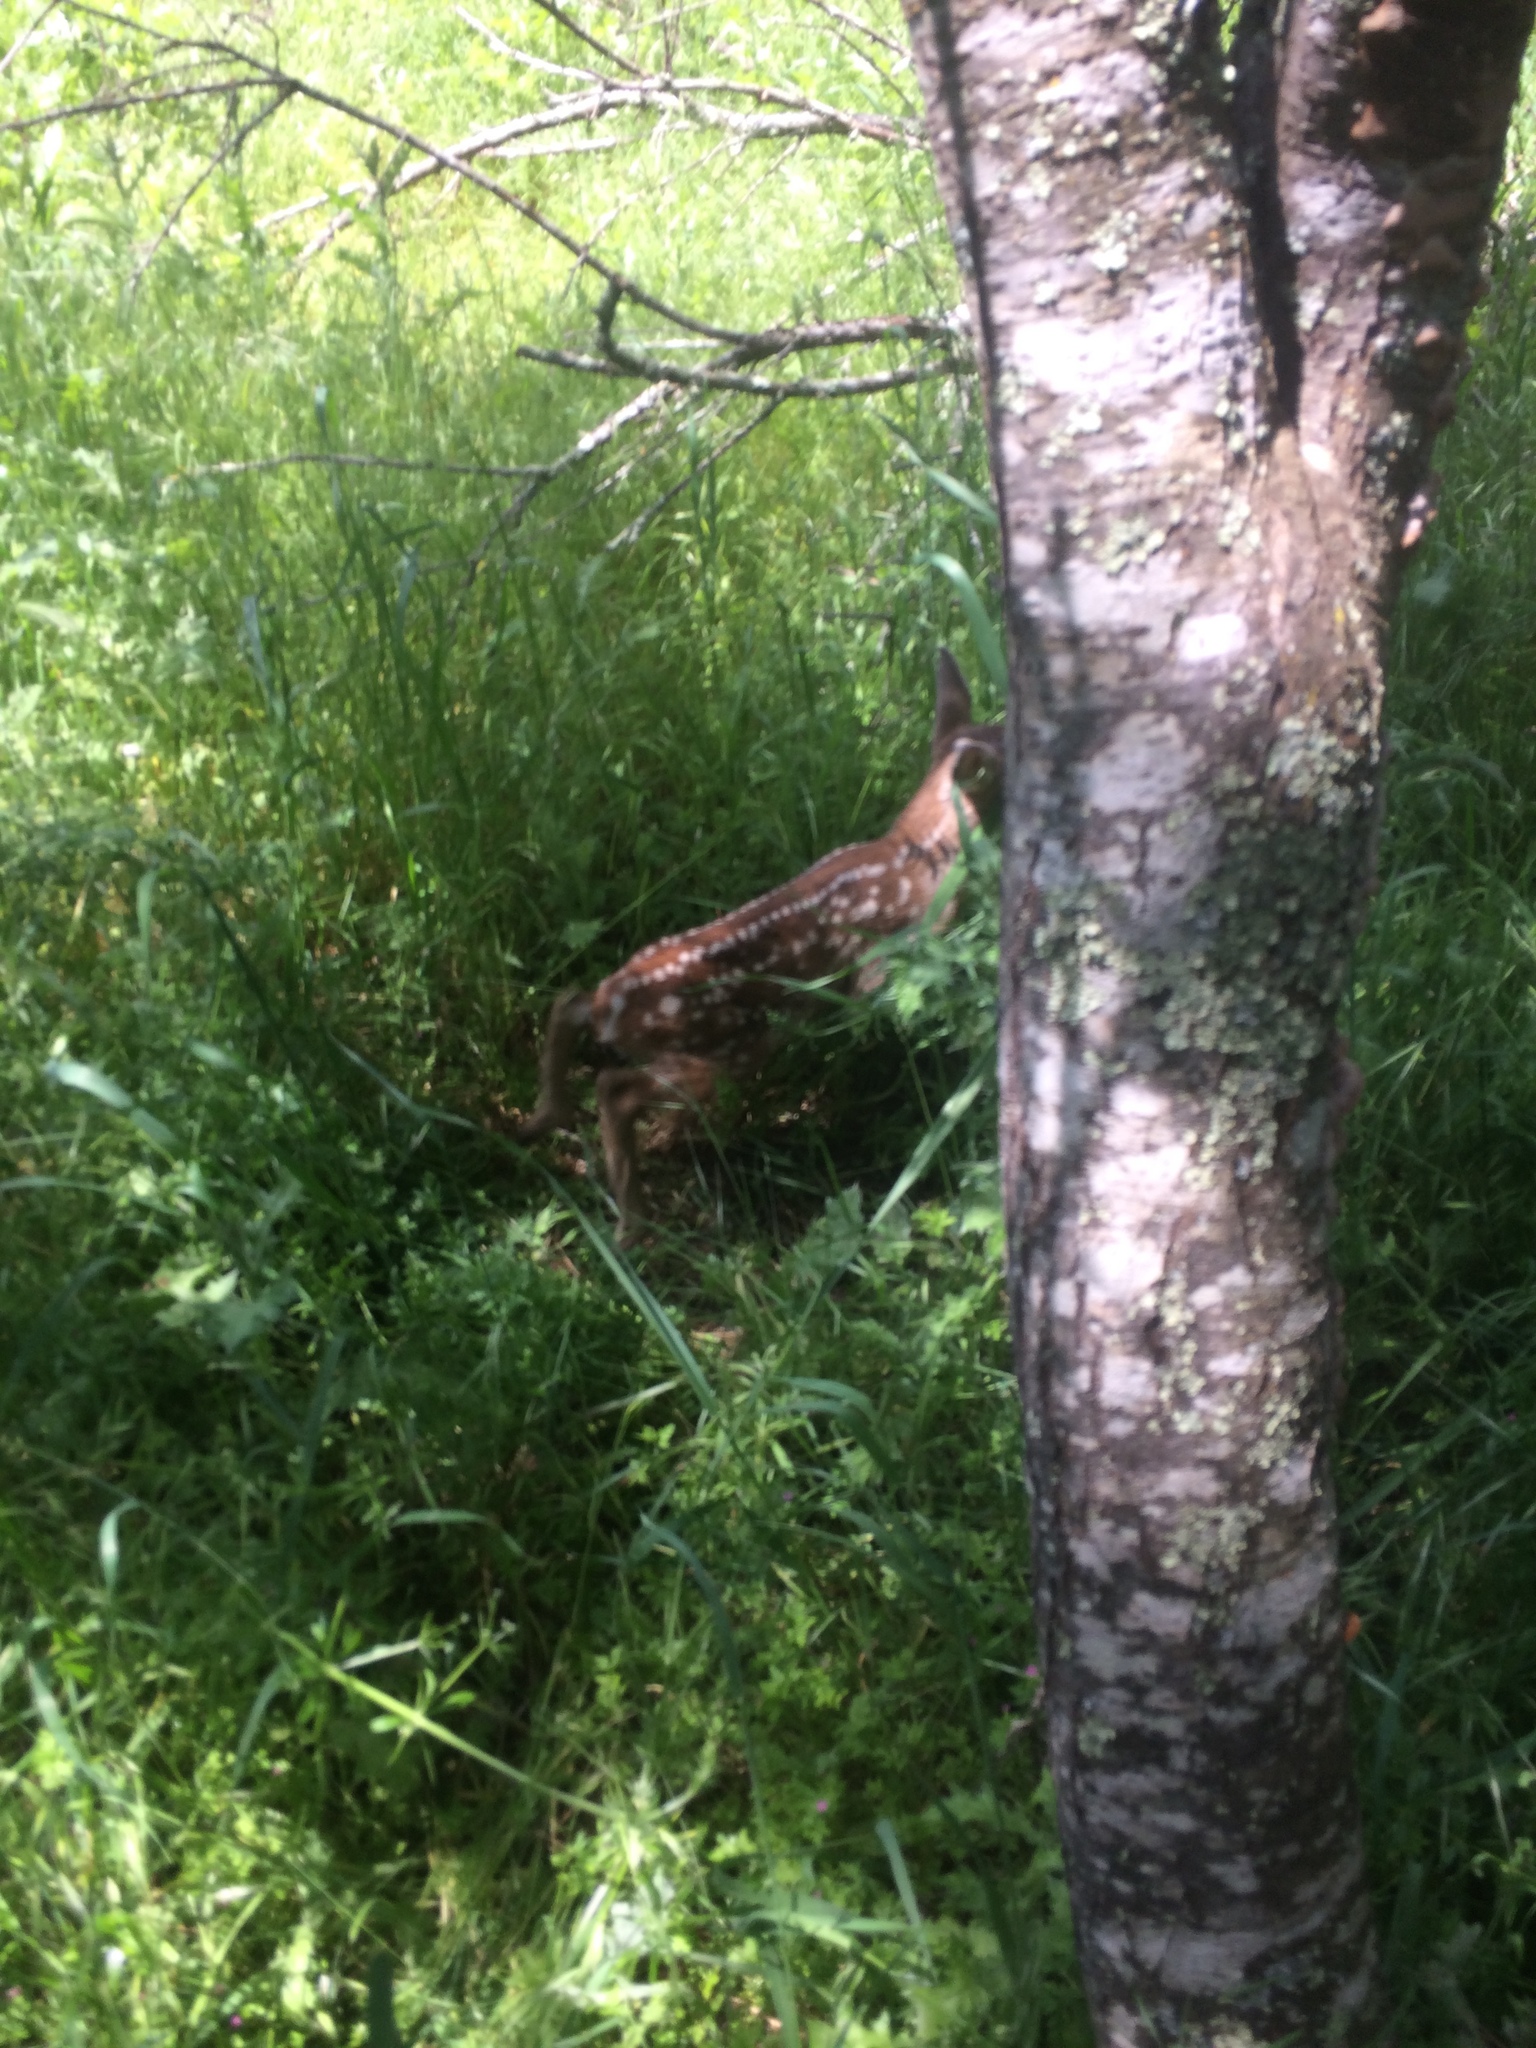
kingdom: Animalia
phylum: Chordata
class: Mammalia
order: Artiodactyla
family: Cervidae
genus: Odocoileus
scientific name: Odocoileus hemionus
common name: Mule deer
